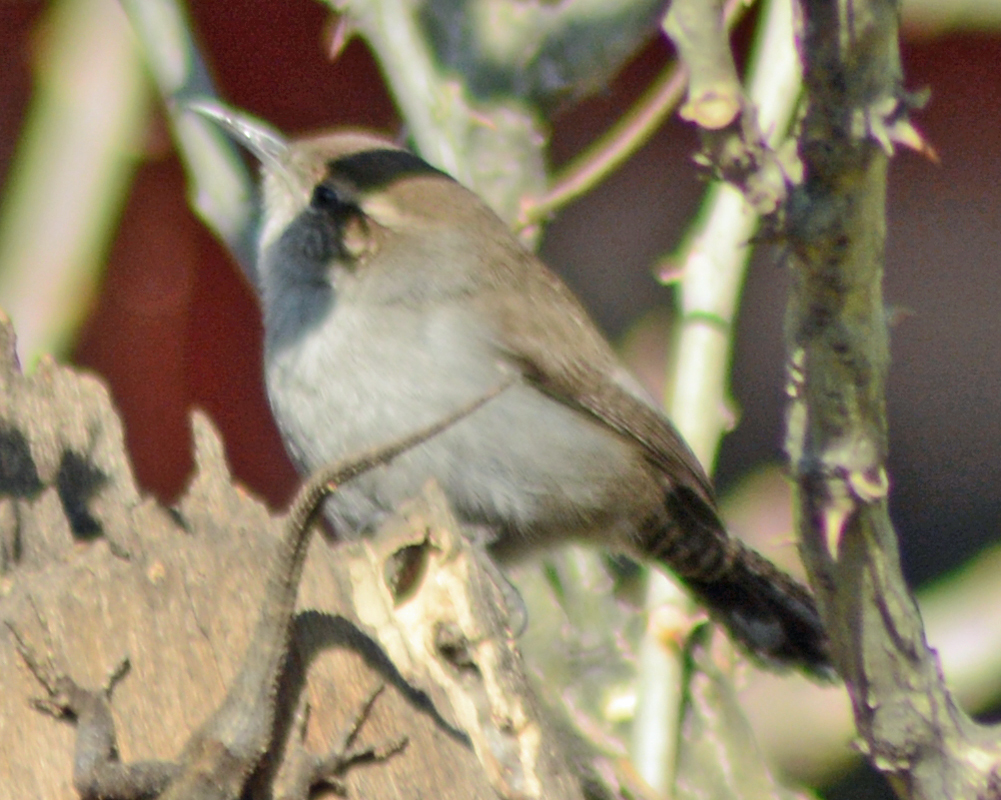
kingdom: Animalia
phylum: Chordata
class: Aves
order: Passeriformes
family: Troglodytidae
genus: Thryomanes
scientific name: Thryomanes bewickii
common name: Bewick's wren
